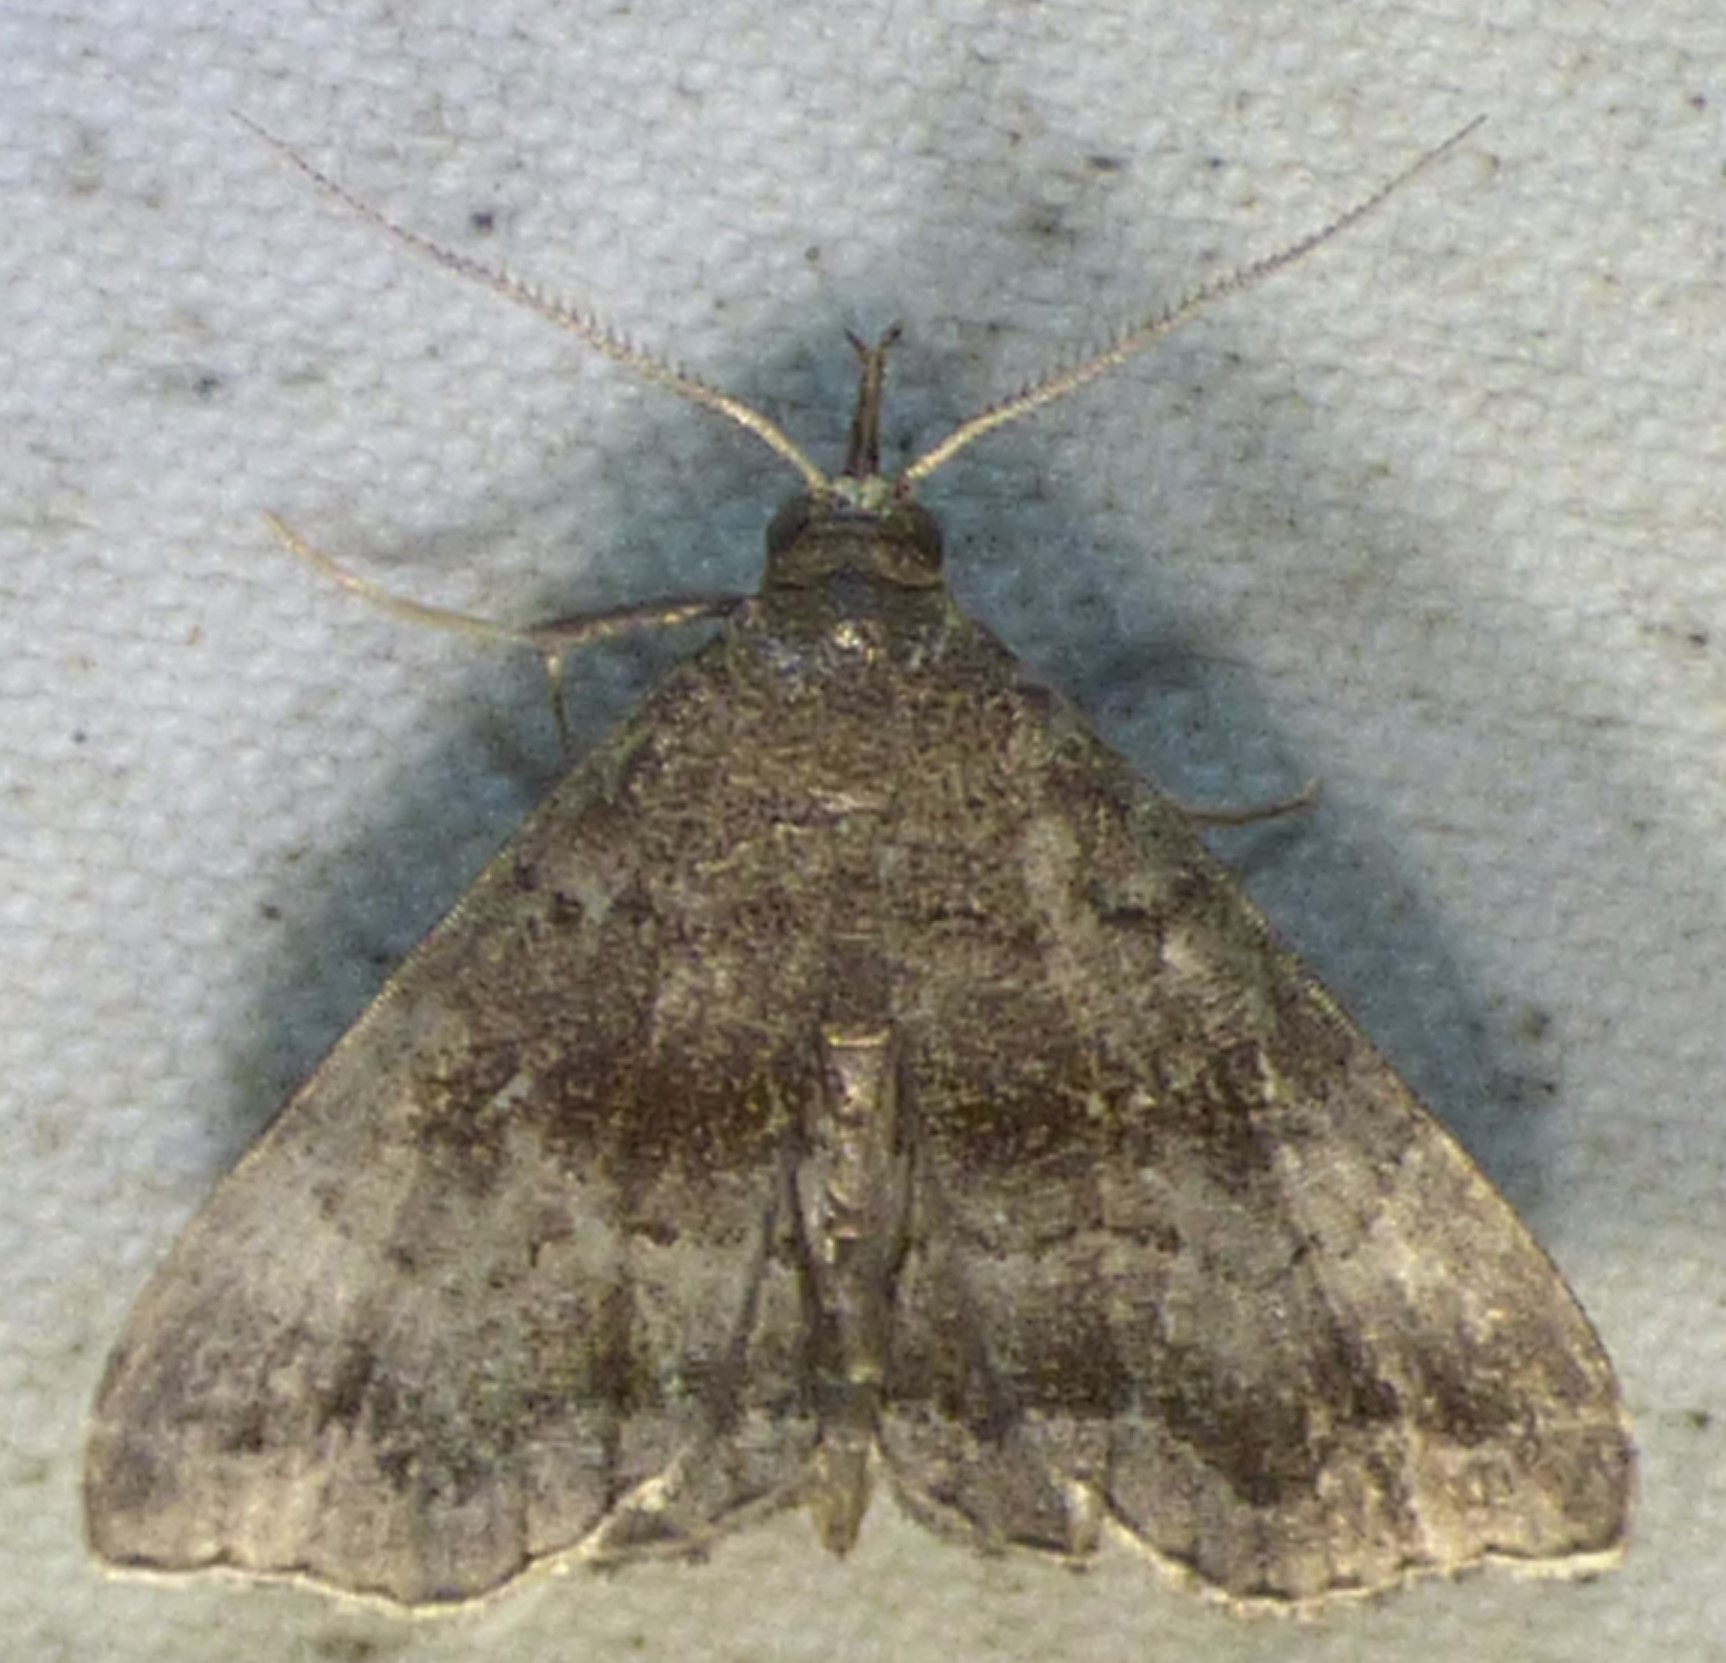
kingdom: Animalia
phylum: Arthropoda
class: Insecta
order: Lepidoptera
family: Erebidae
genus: Phalaenostola
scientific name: Phalaenostola larentioides
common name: Black-banded owlet
